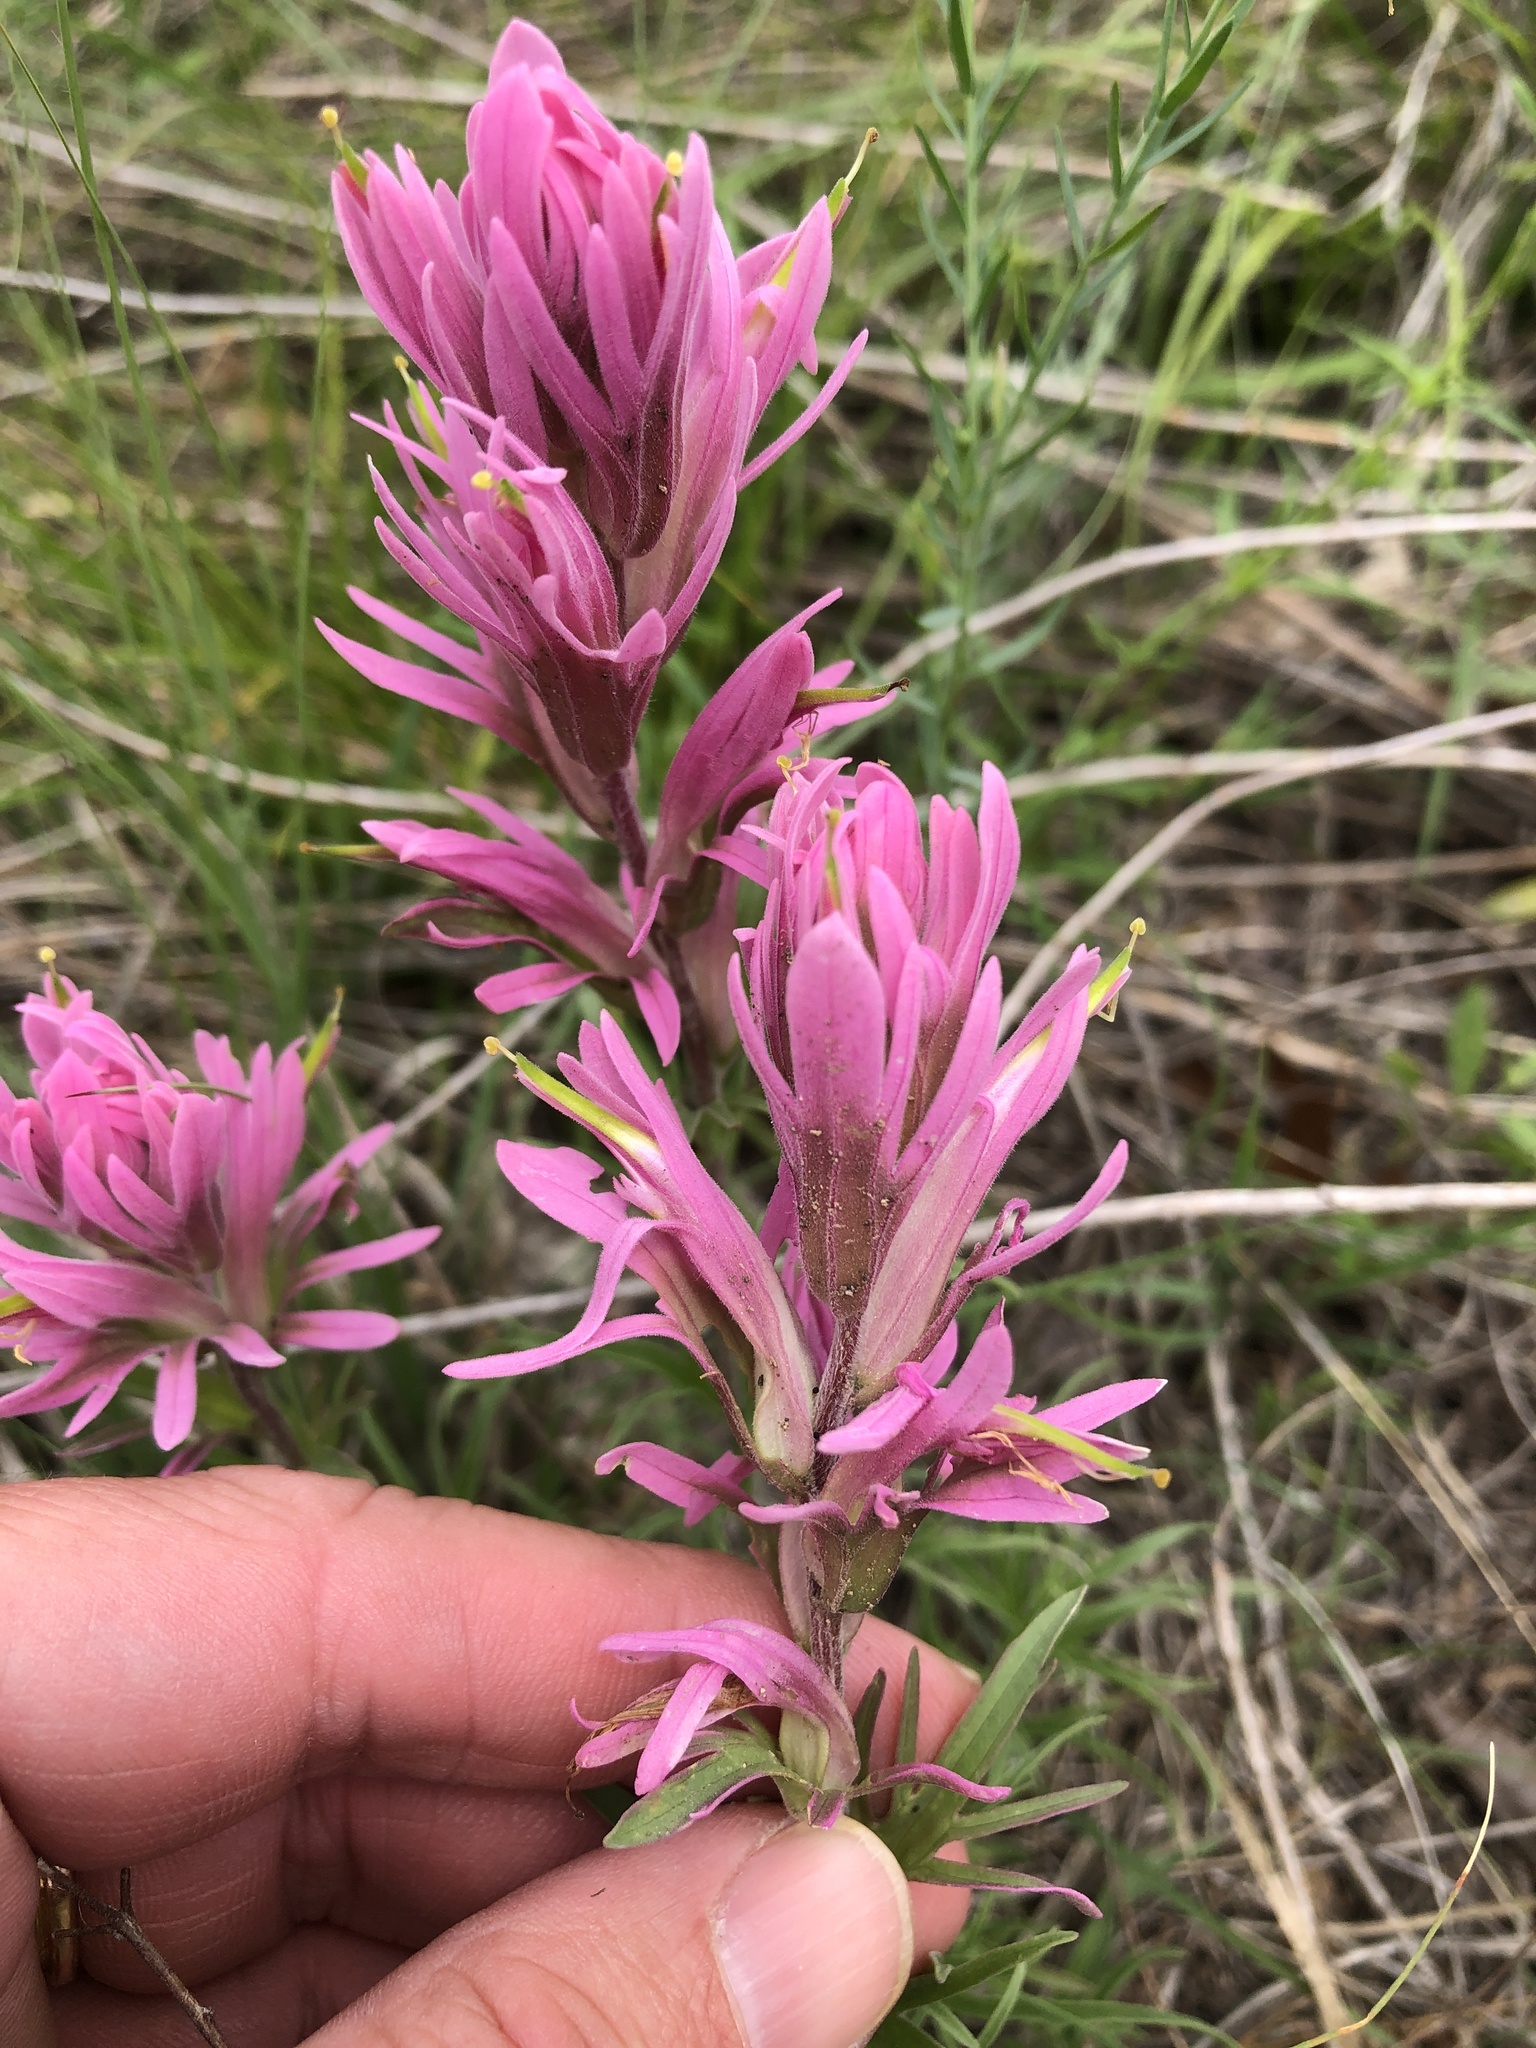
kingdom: Plantae
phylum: Tracheophyta
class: Magnoliopsida
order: Lamiales
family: Orobanchaceae
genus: Castilleja
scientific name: Castilleja purpurea
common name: Plains paintbrush
